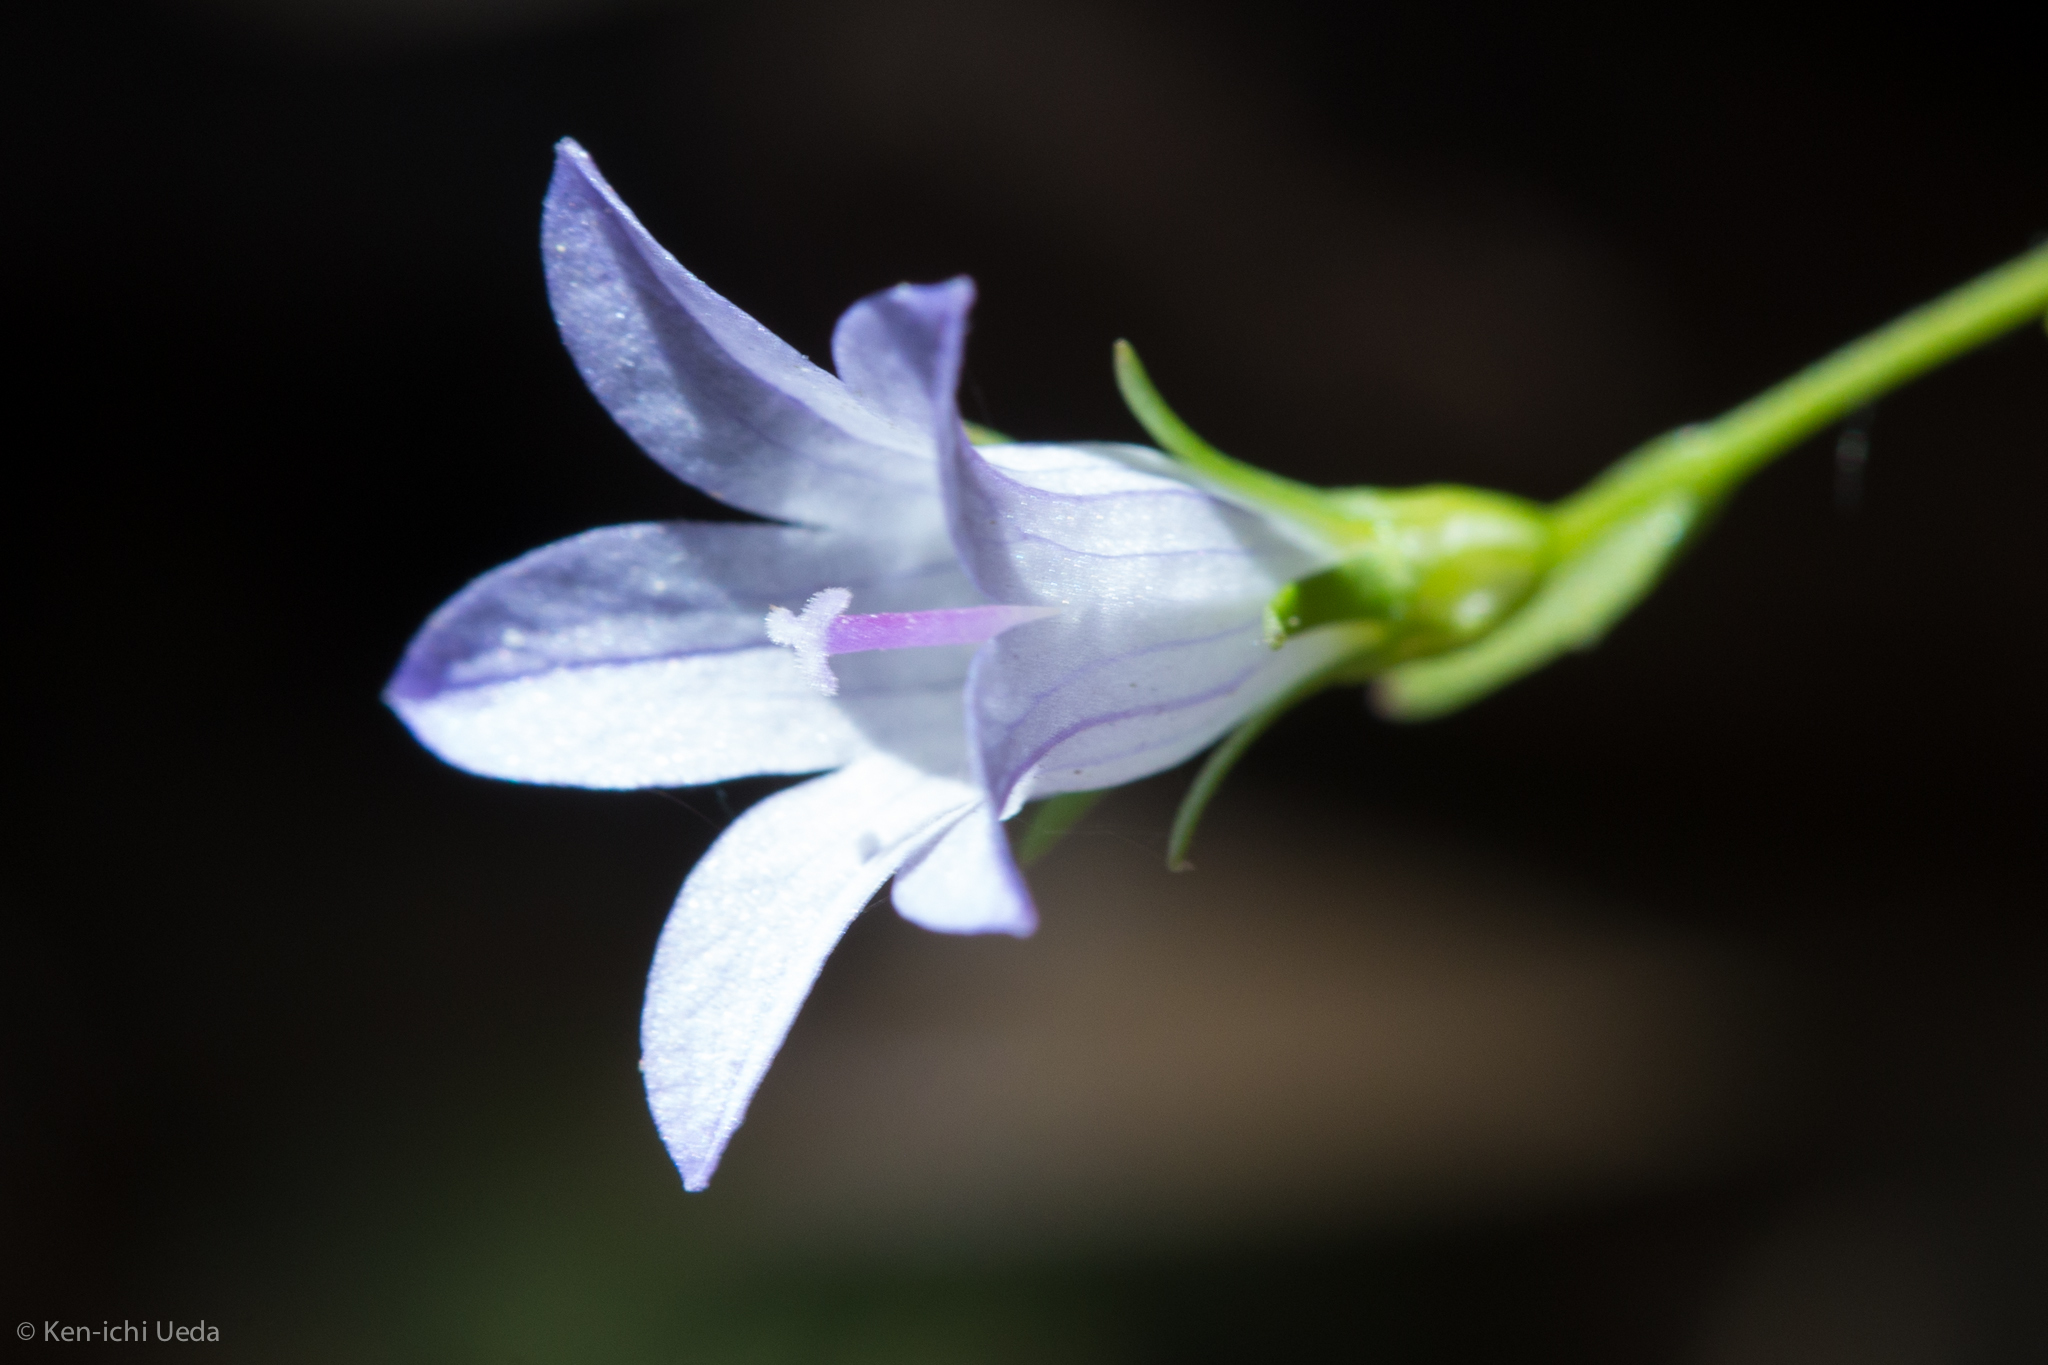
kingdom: Plantae
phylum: Tracheophyta
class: Magnoliopsida
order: Asterales
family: Campanulaceae
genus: Ravenella
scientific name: Ravenella exigua
